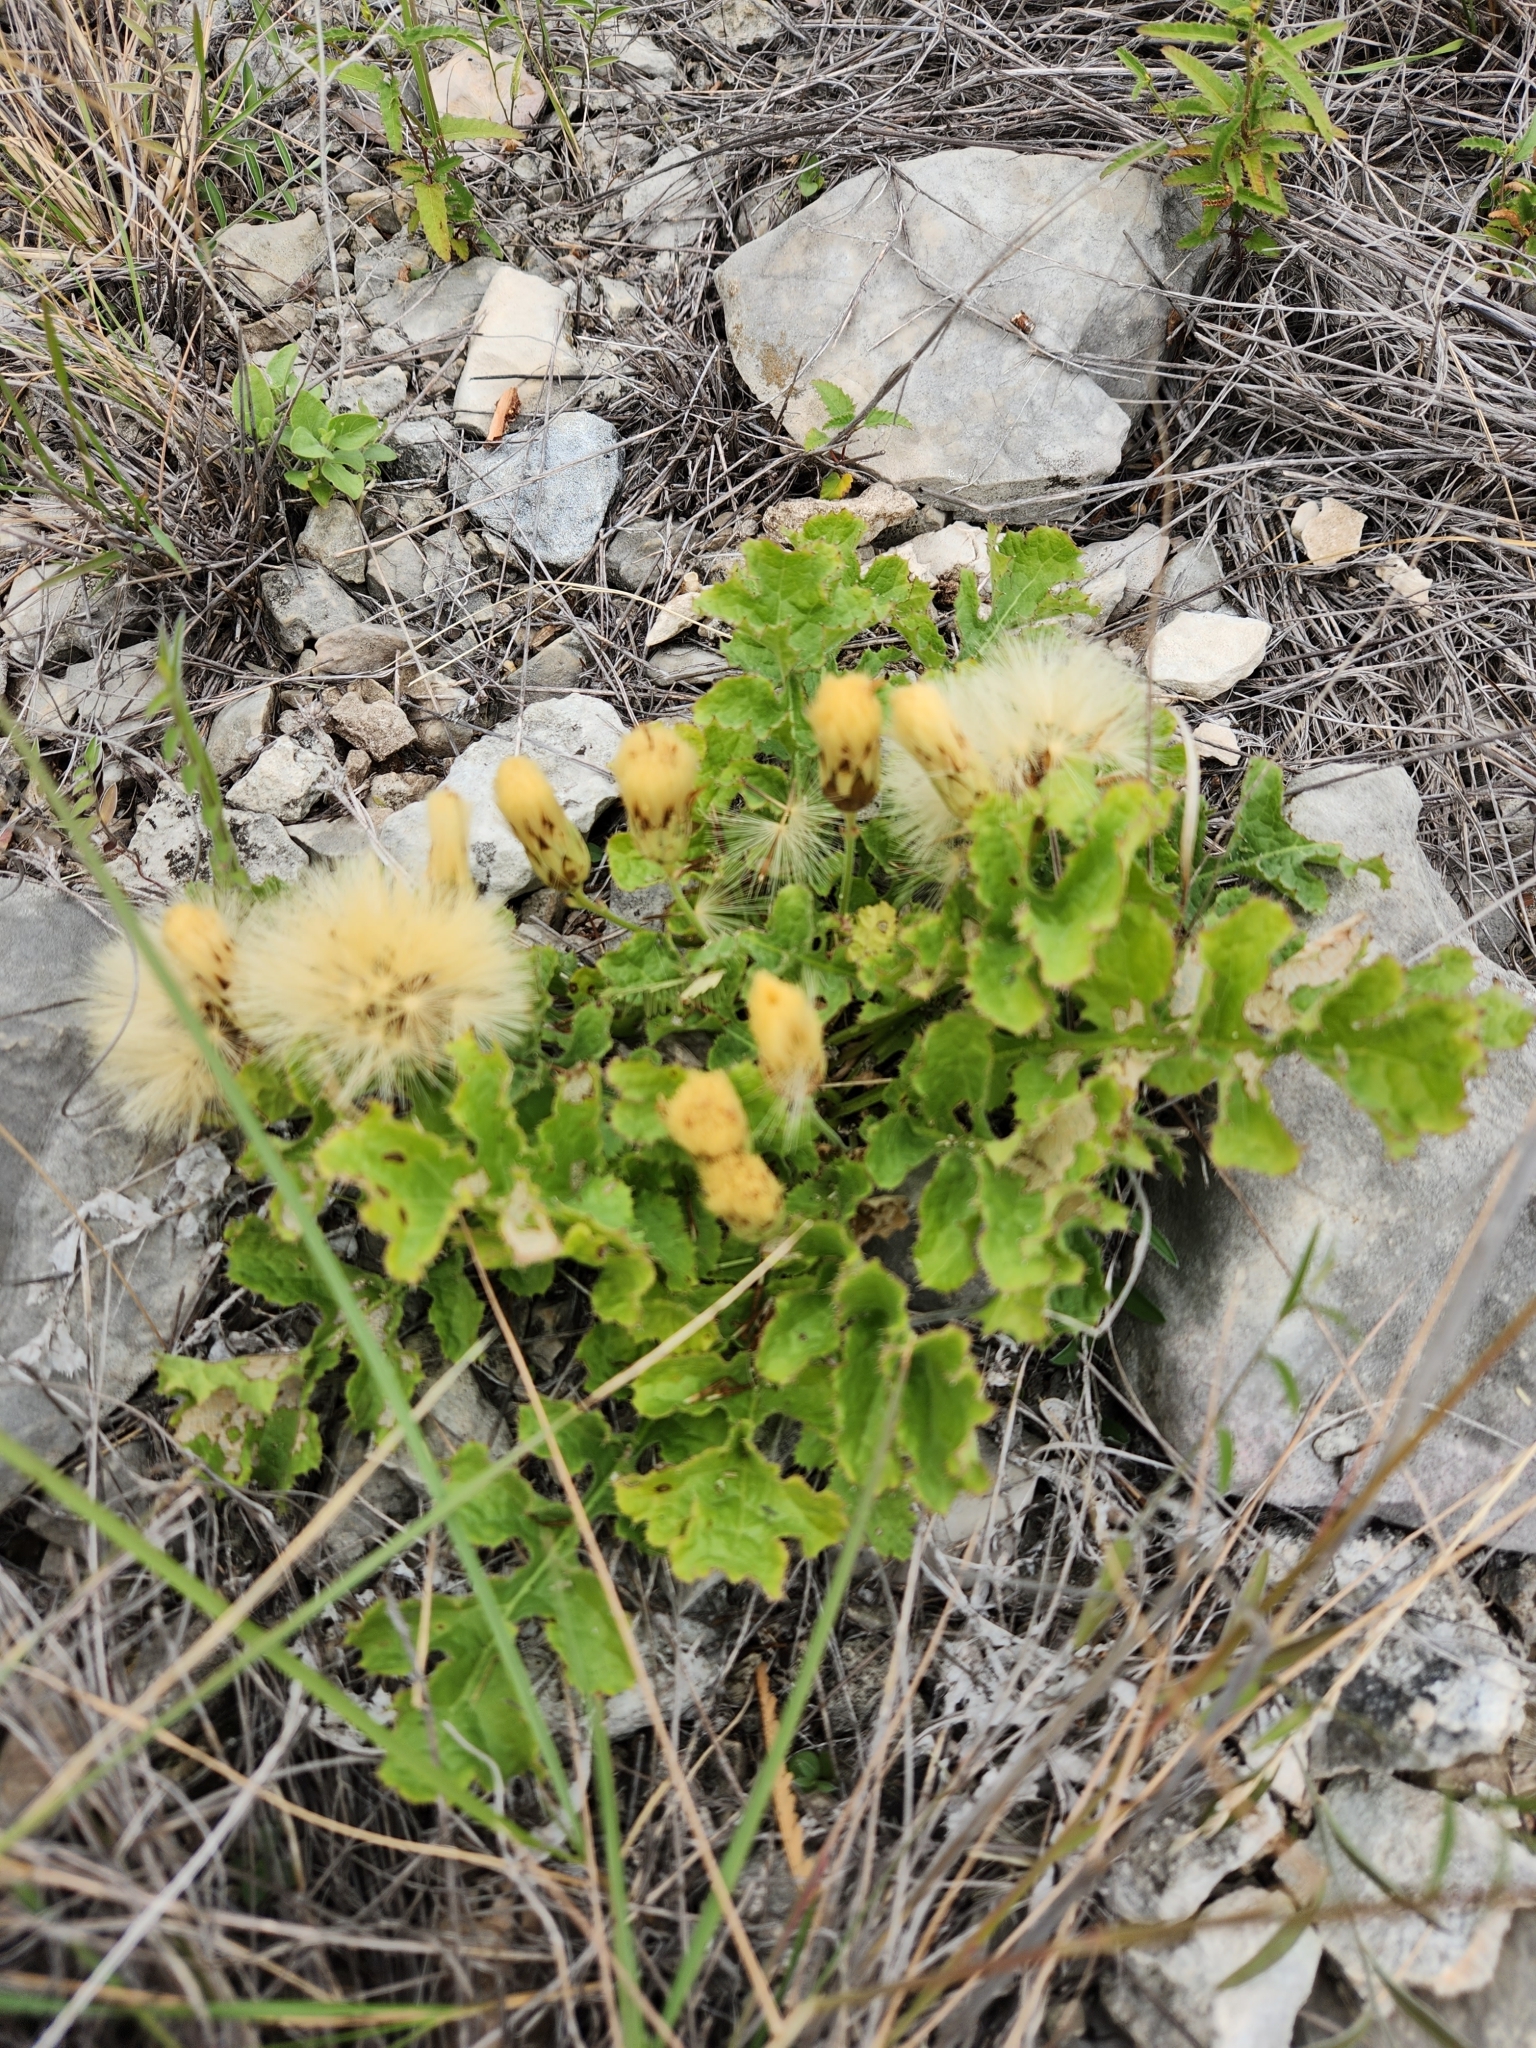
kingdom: Plantae
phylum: Tracheophyta
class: Magnoliopsida
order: Asterales
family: Asteraceae
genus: Acourtia
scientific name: Acourtia runcinata
